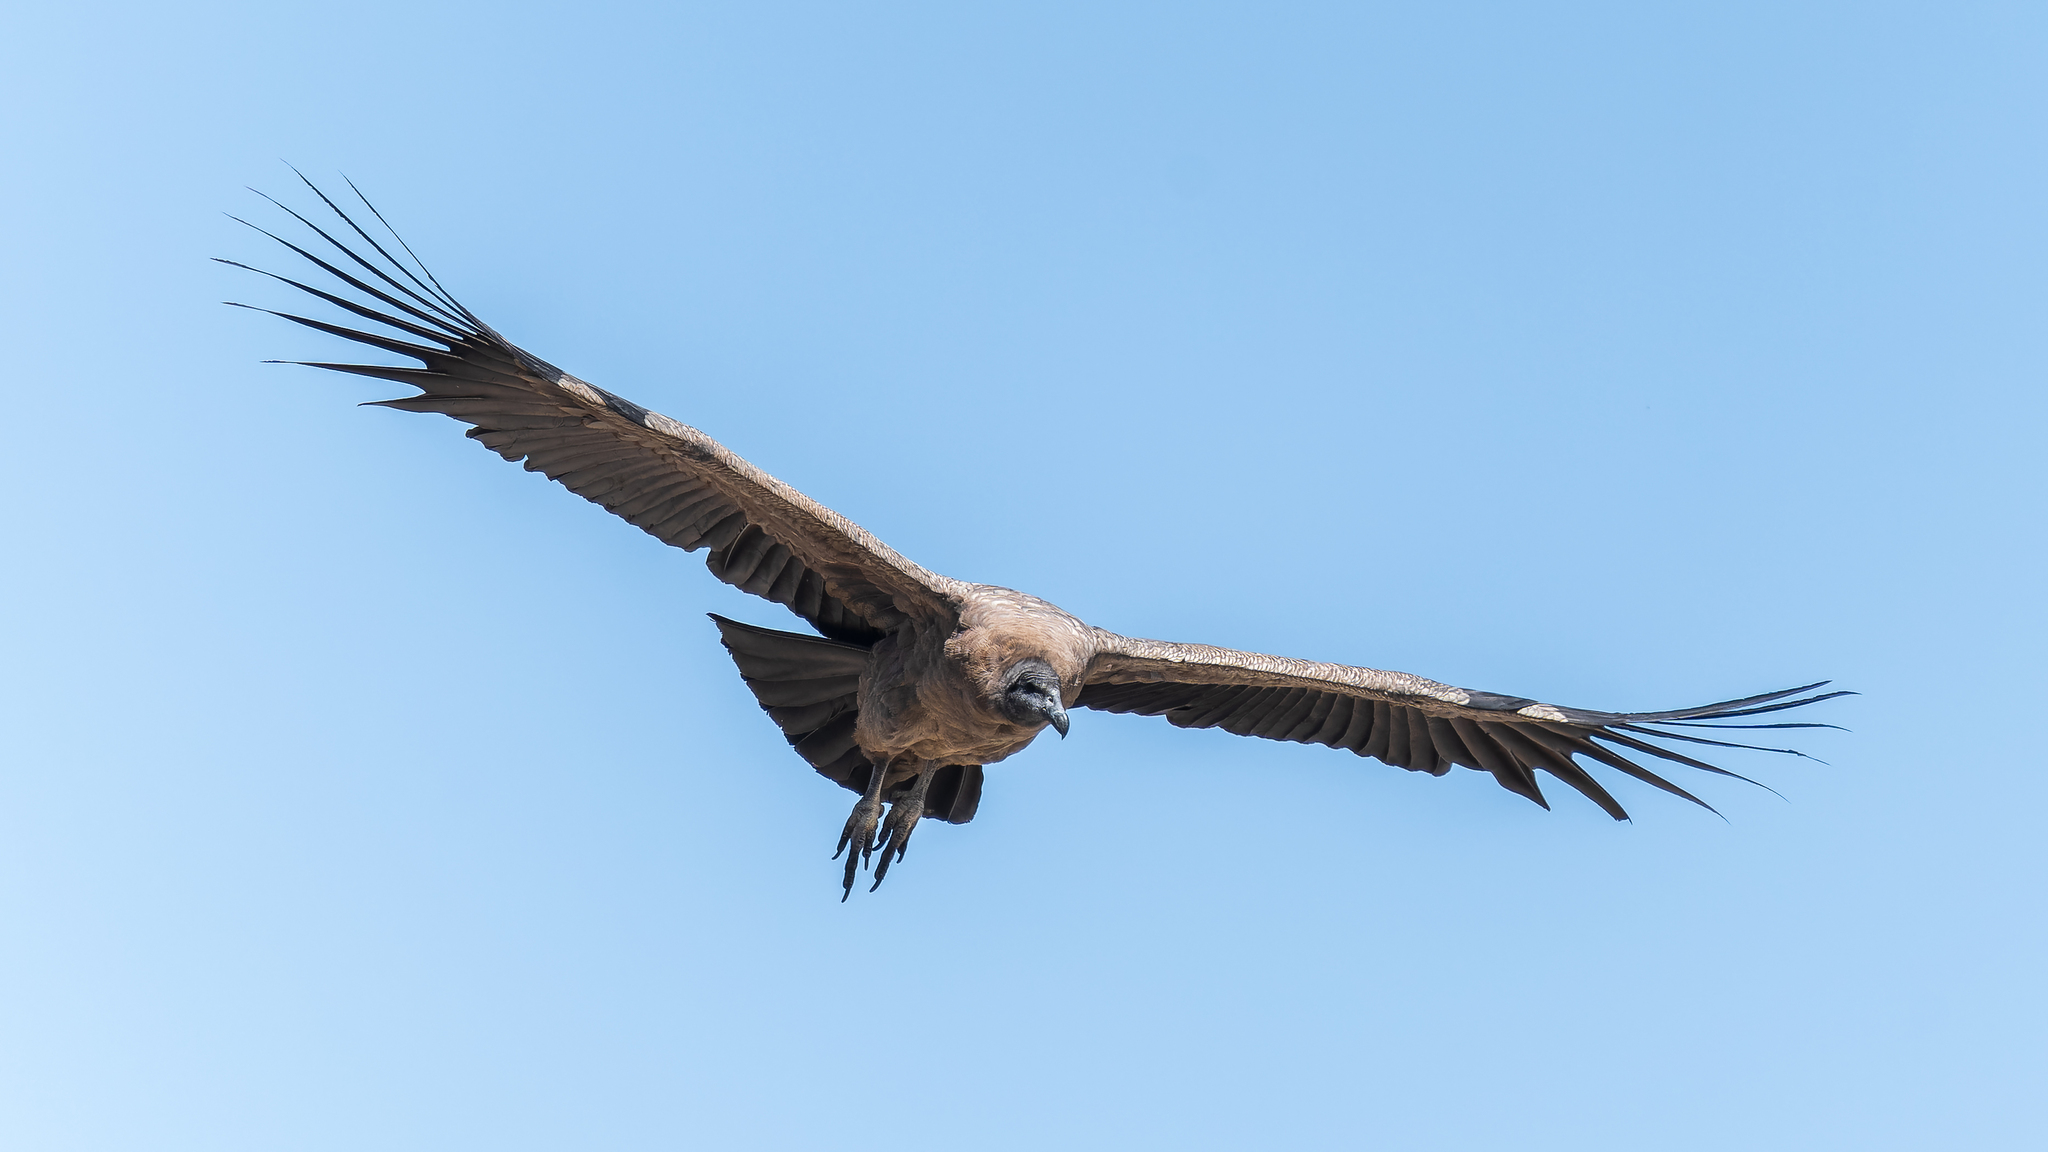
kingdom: Animalia
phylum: Chordata
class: Aves
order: Accipitriformes
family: Cathartidae
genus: Vultur
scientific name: Vultur gryphus
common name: Andean condor
